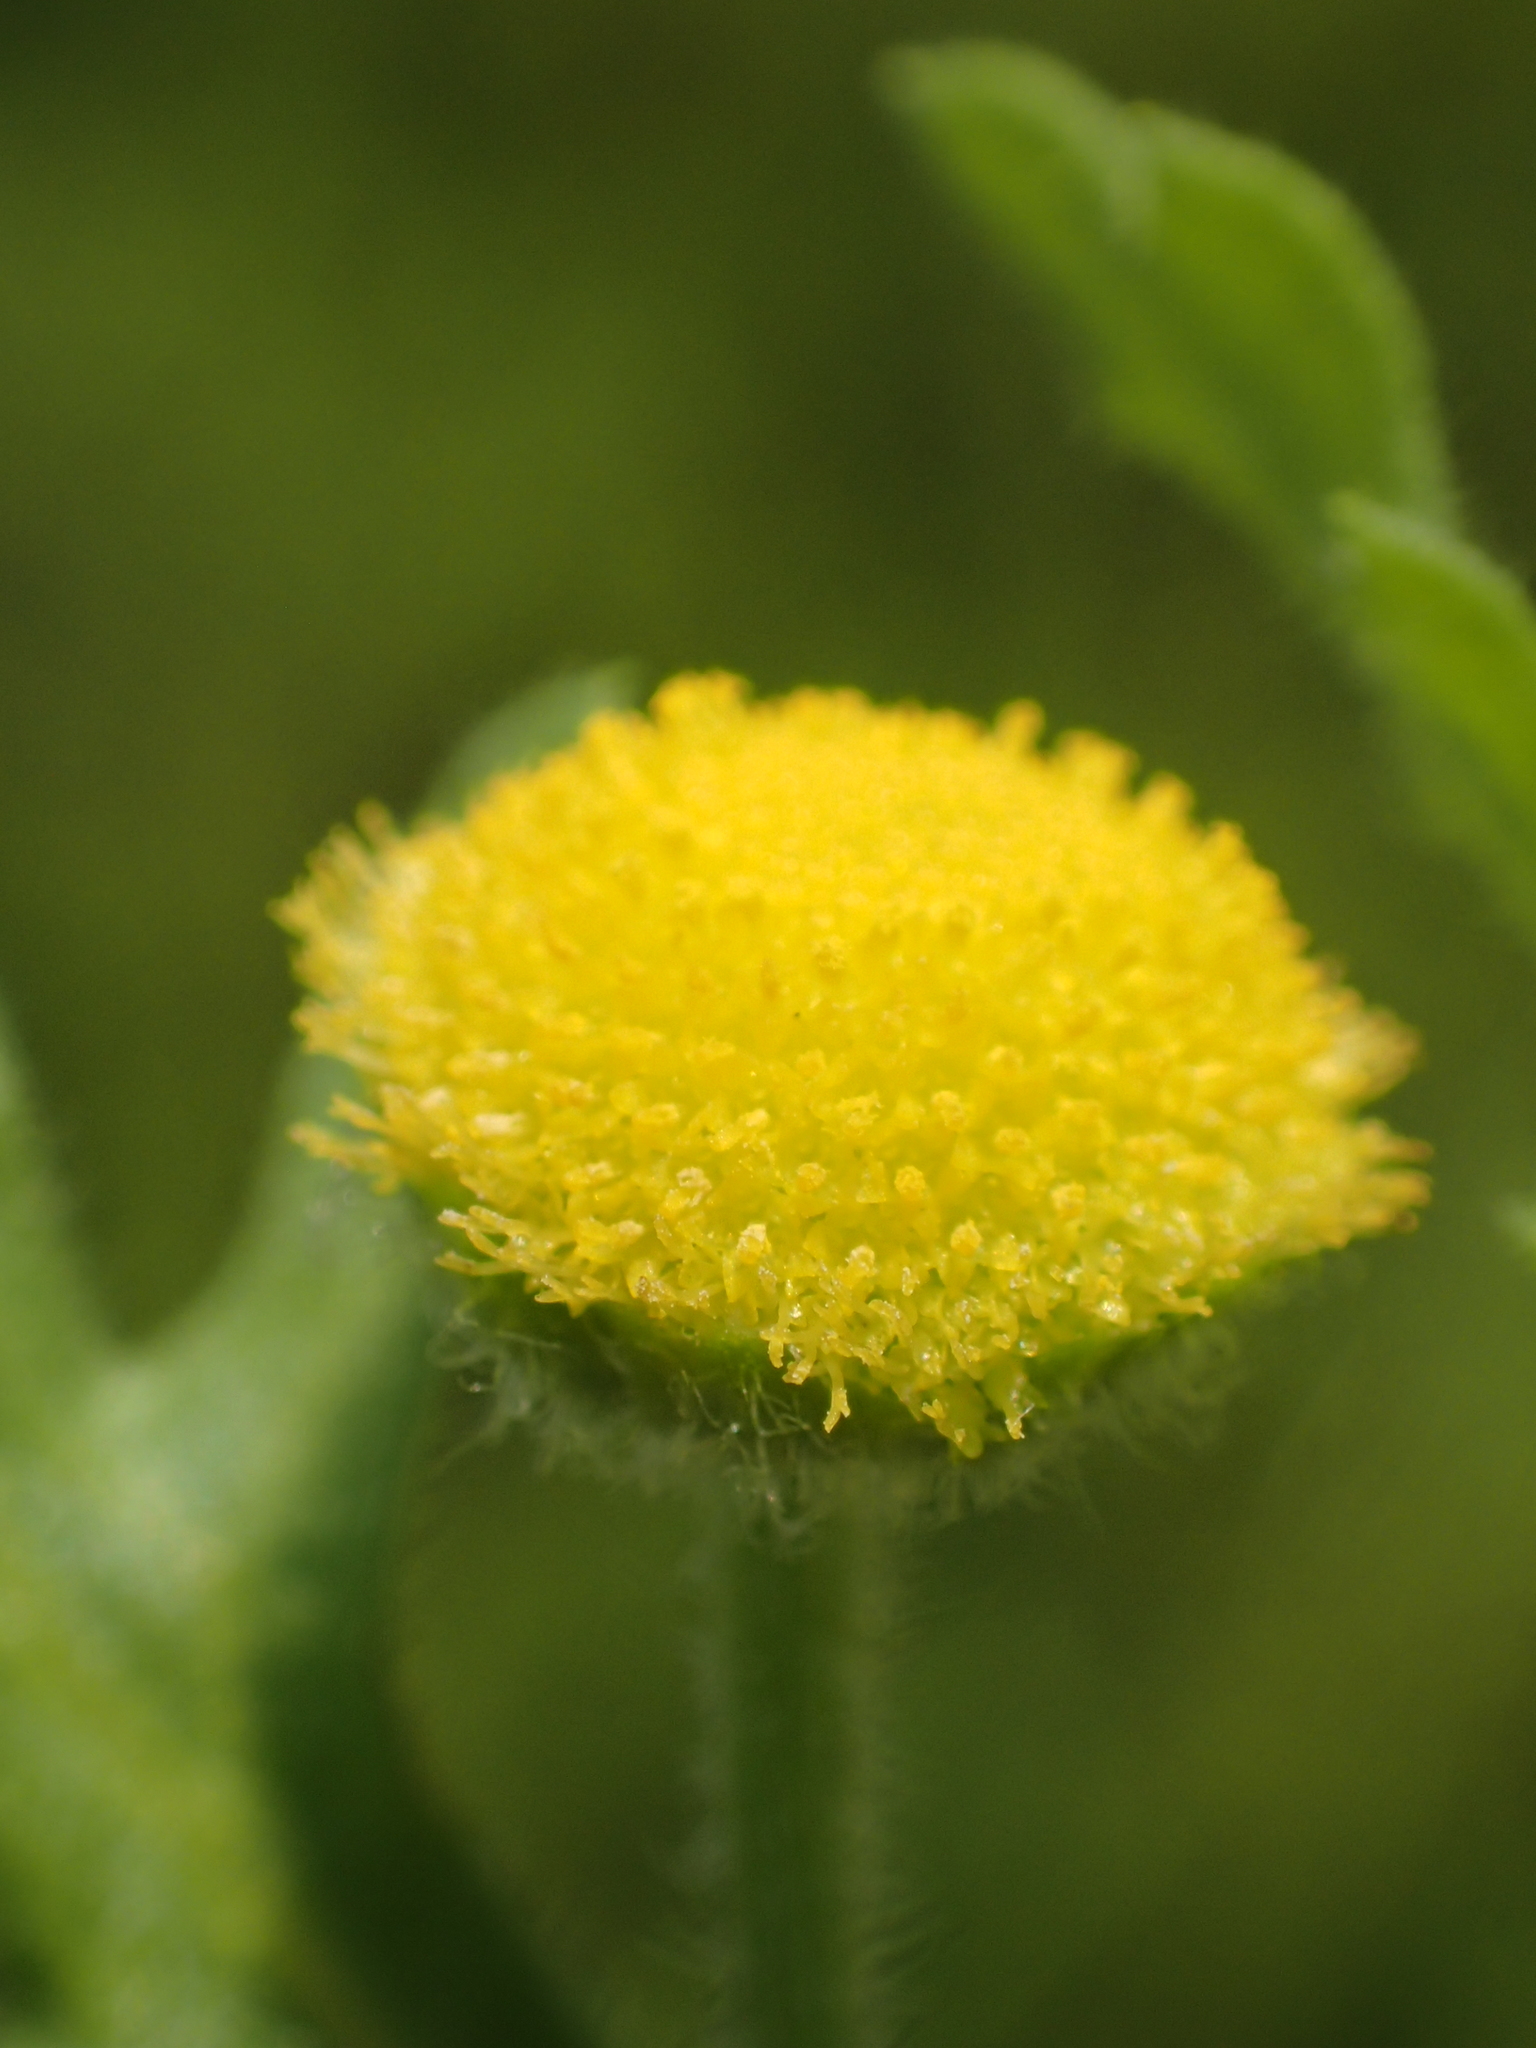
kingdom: Plantae
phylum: Tracheophyta
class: Magnoliopsida
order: Asterales
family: Asteraceae
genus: Grangea
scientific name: Grangea maderaspatana
